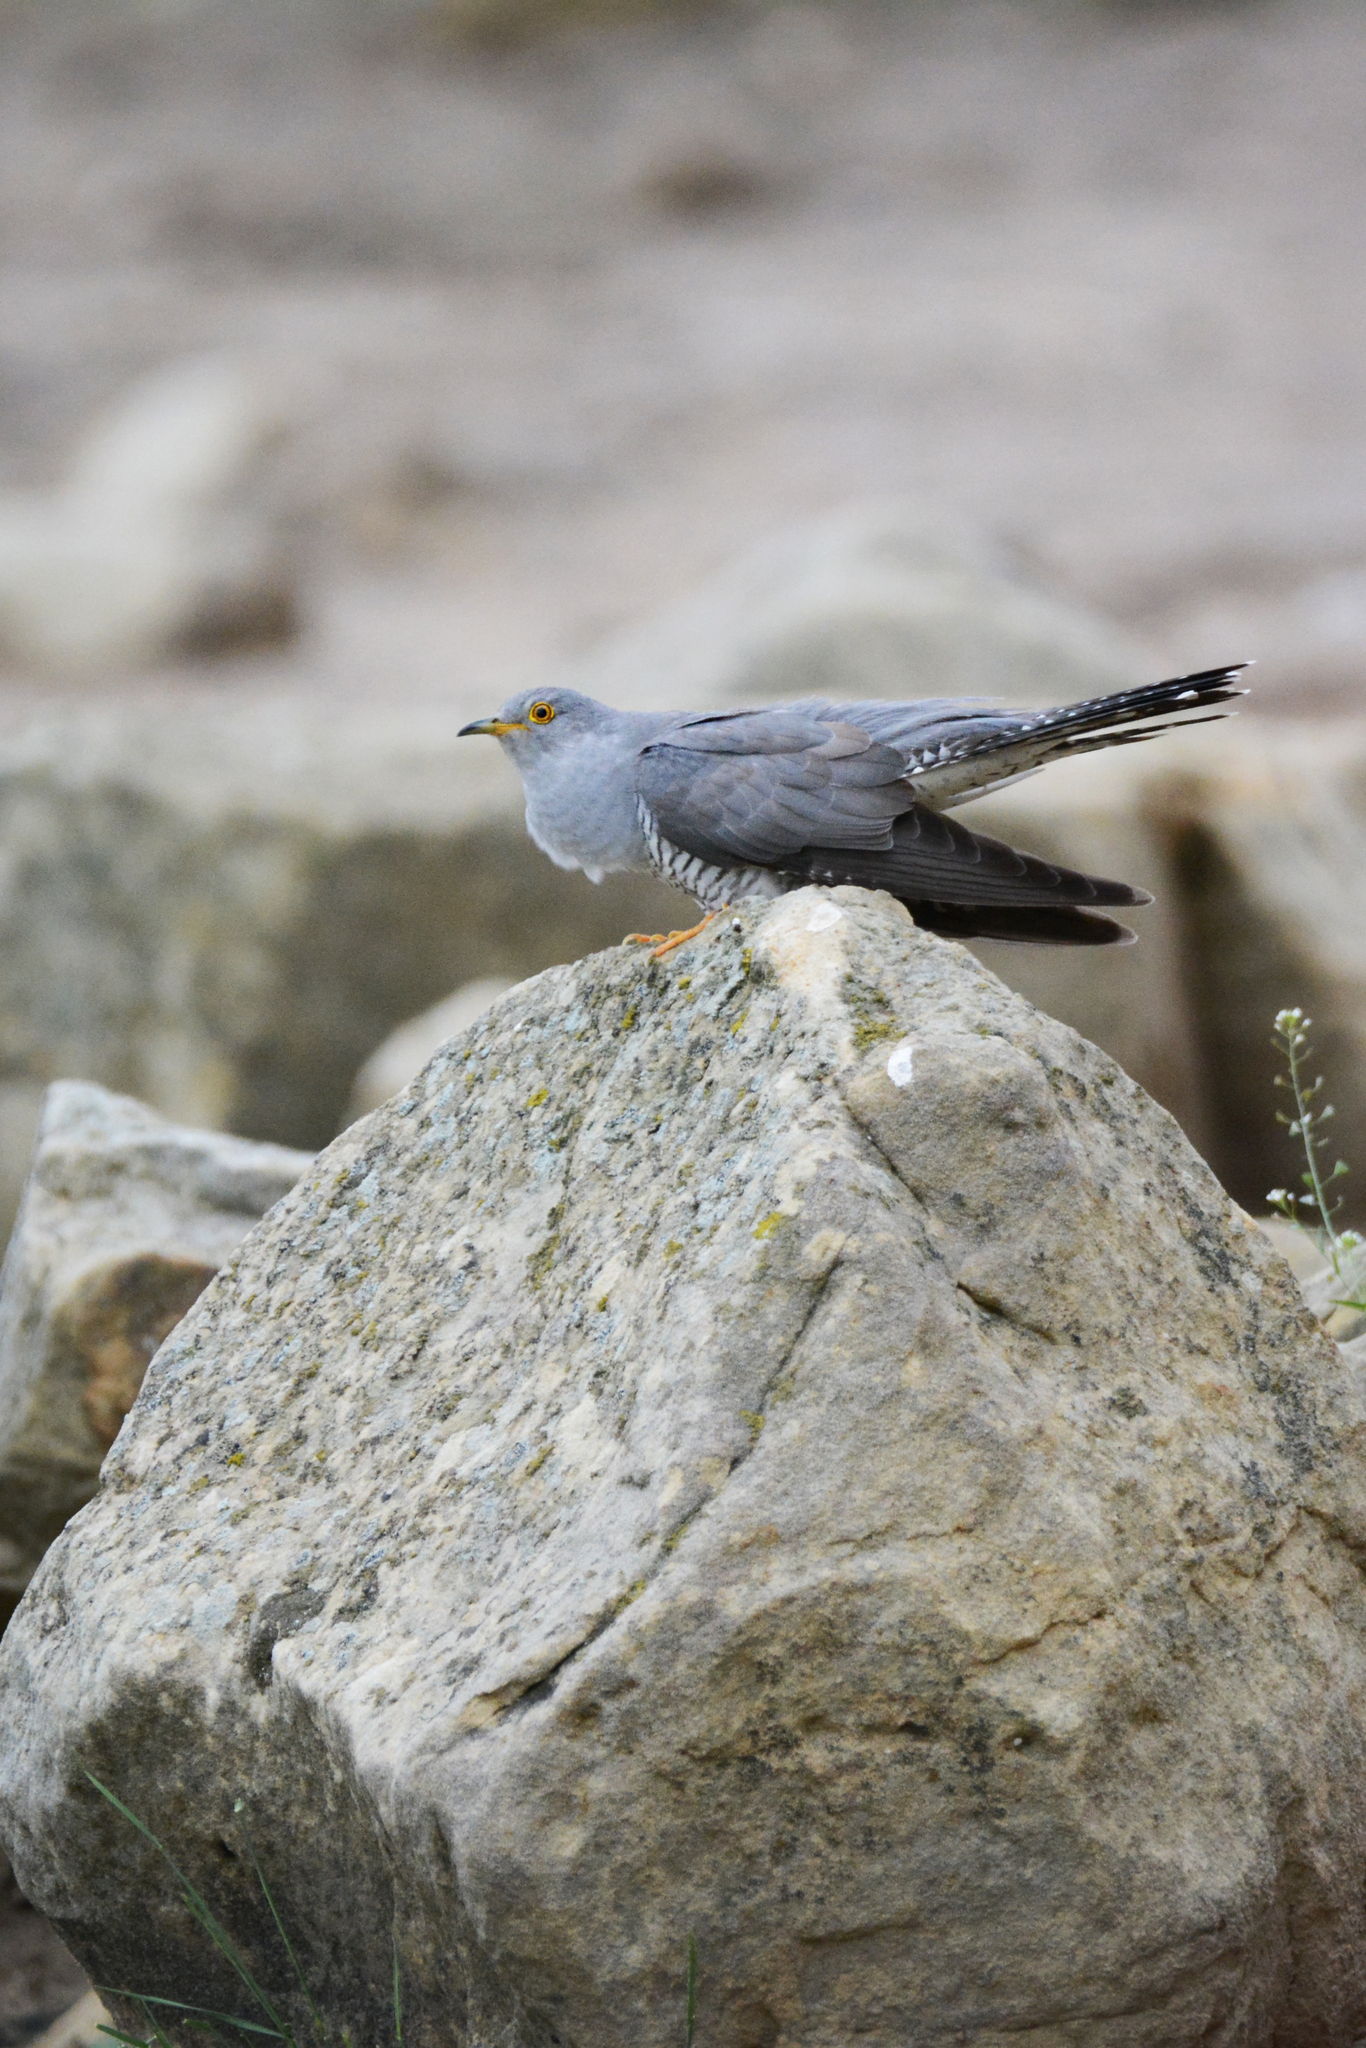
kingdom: Animalia
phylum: Chordata
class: Aves
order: Cuculiformes
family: Cuculidae
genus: Cuculus
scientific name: Cuculus canorus
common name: Common cuckoo
